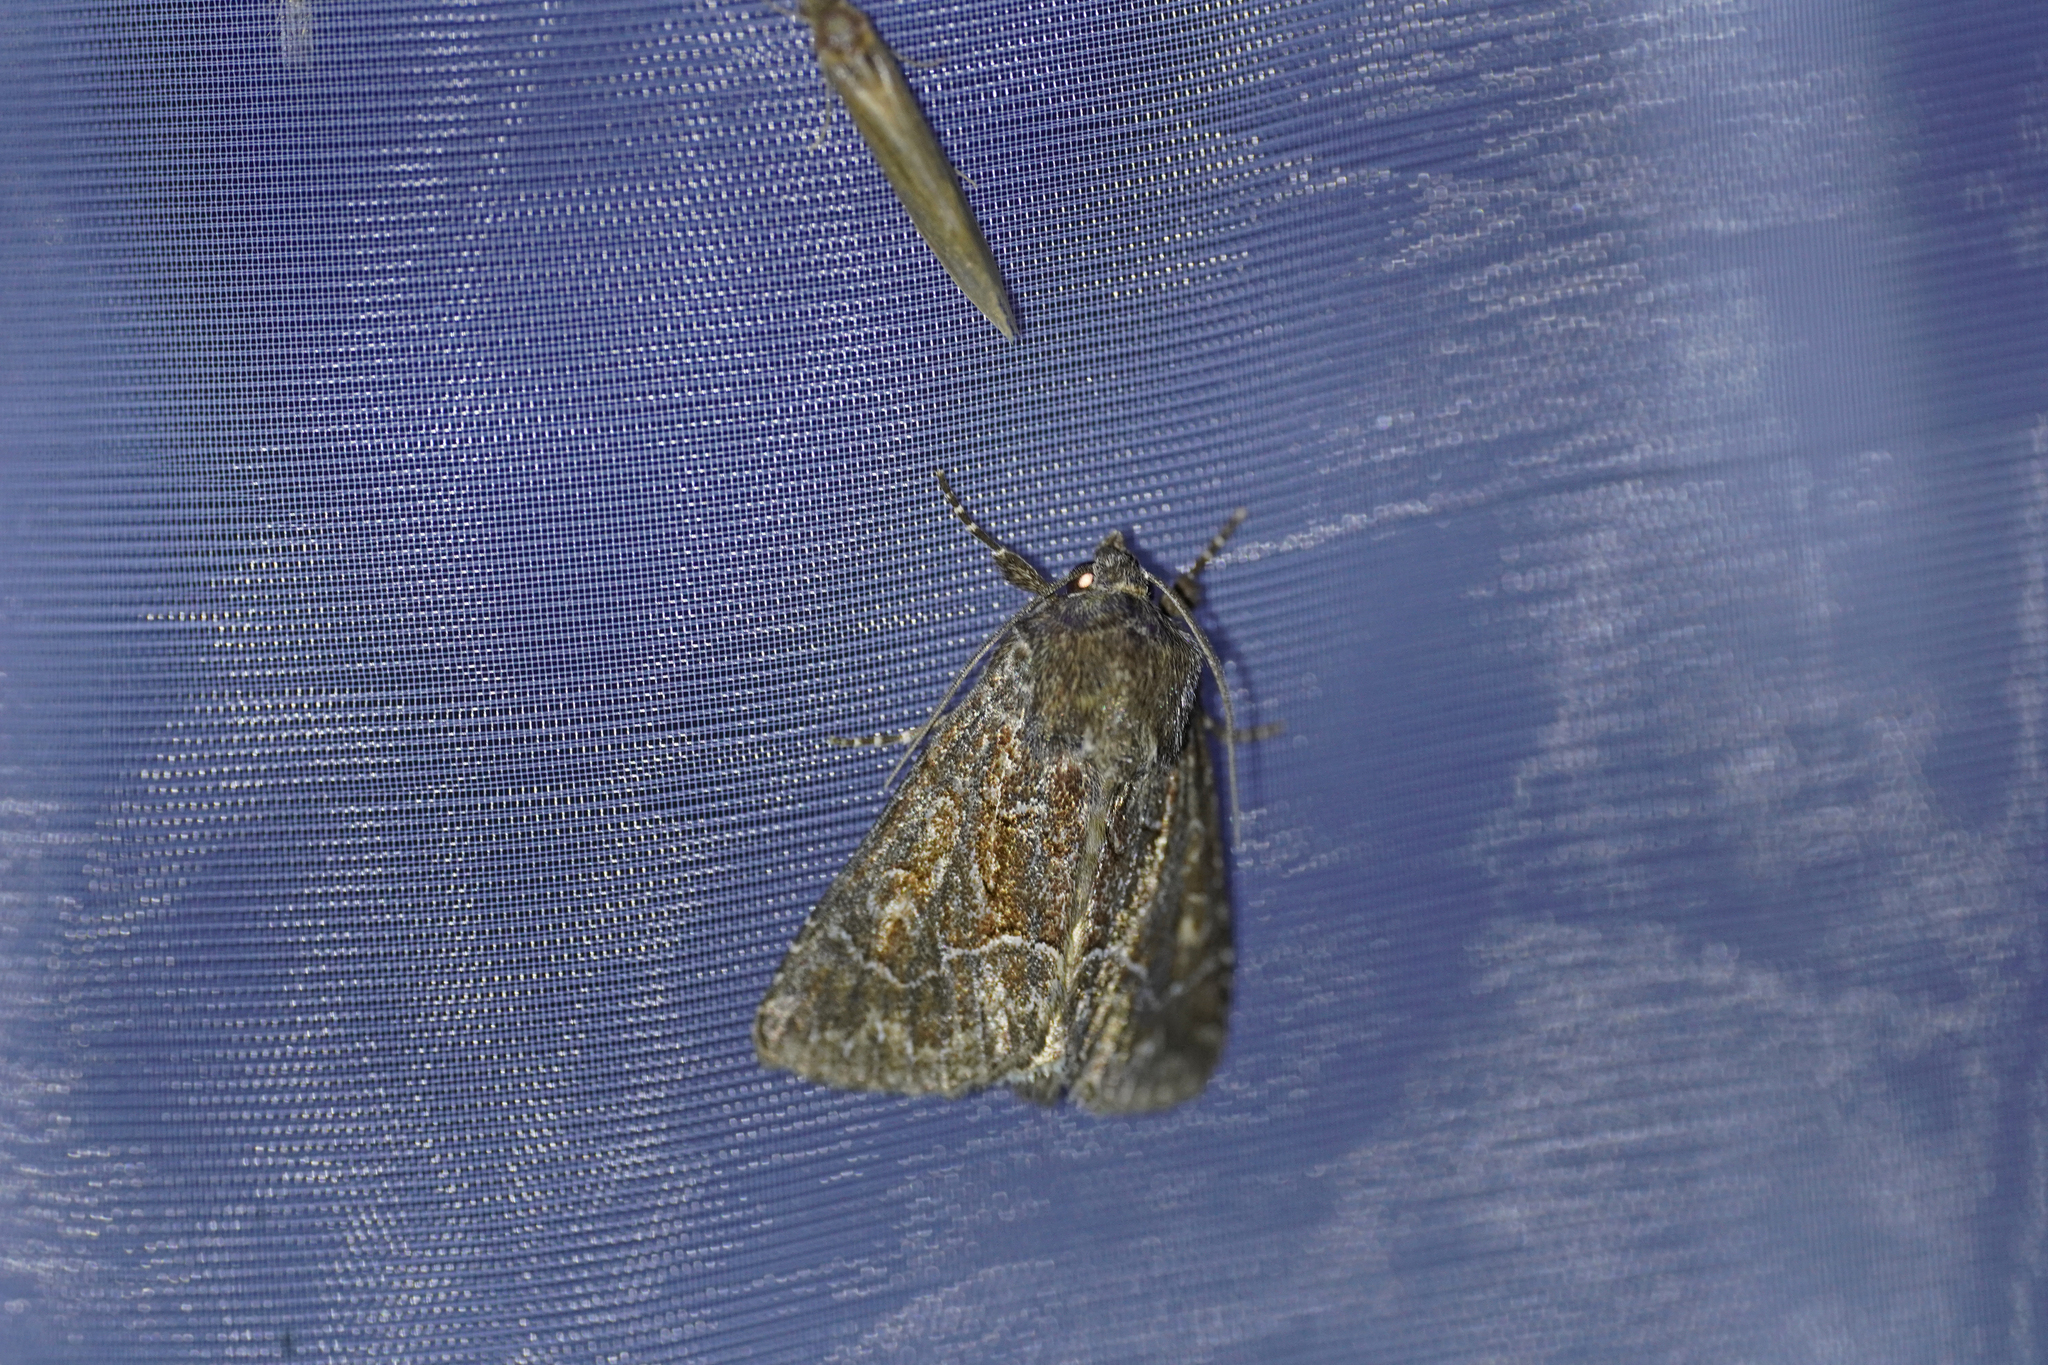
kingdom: Animalia
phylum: Arthropoda
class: Insecta
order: Lepidoptera
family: Noctuidae
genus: Thalpophila
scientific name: Thalpophila matura
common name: Straw underwing
